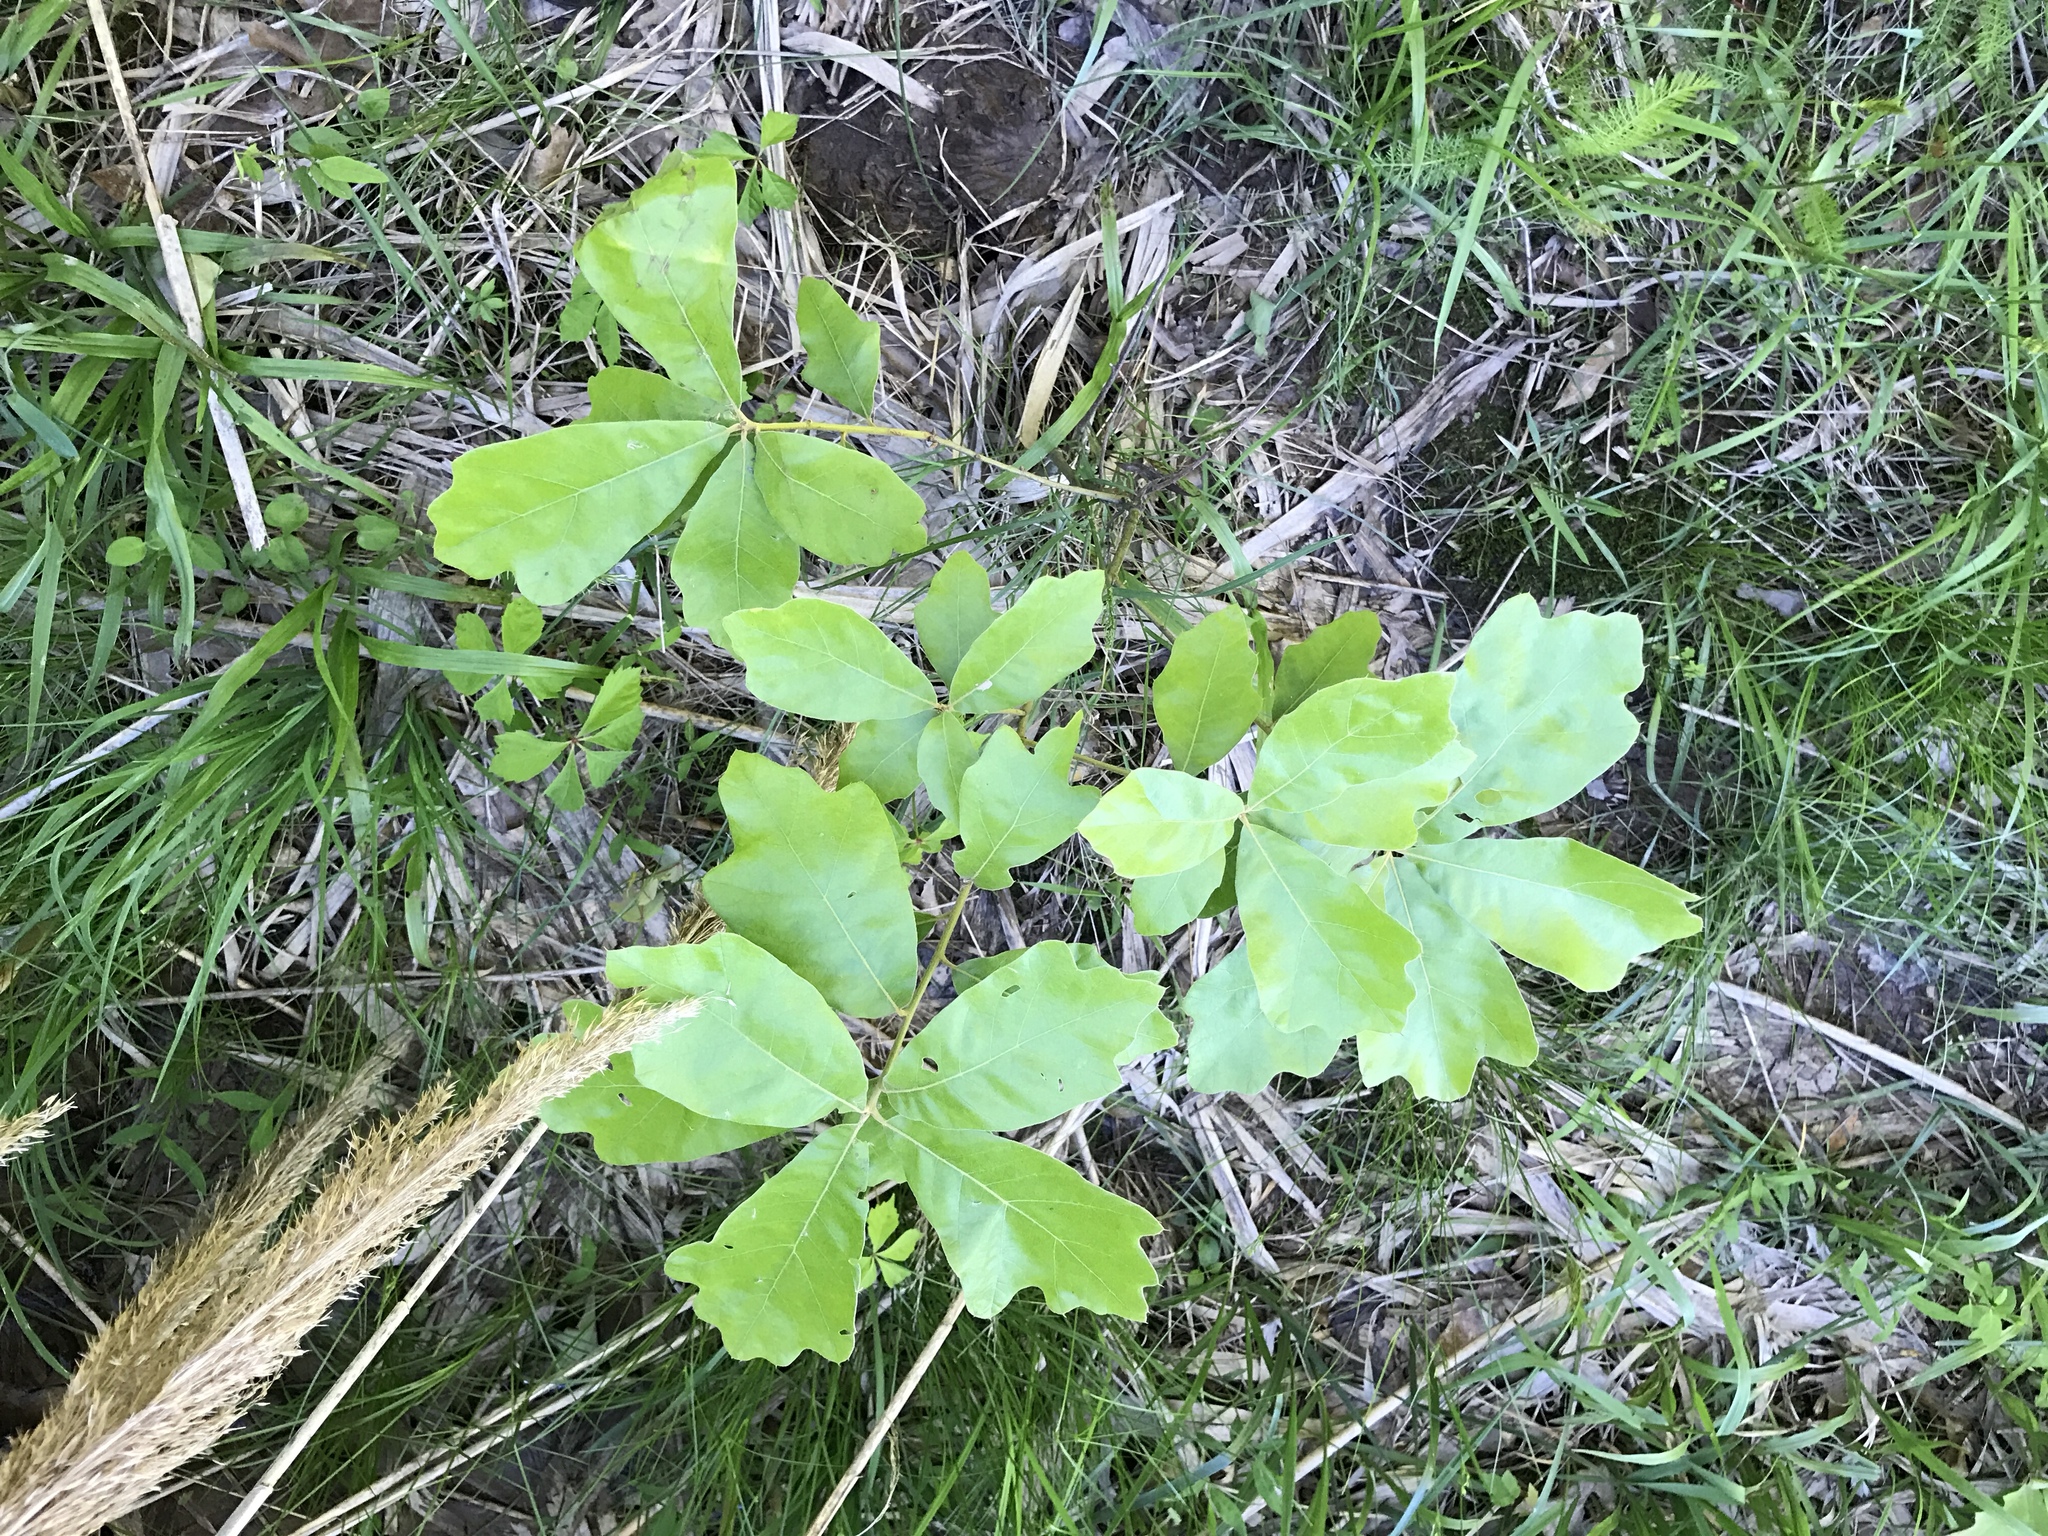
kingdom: Plantae
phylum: Tracheophyta
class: Magnoliopsida
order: Fagales
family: Fagaceae
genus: Quercus
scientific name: Quercus marilandica
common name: Blackjack oak
